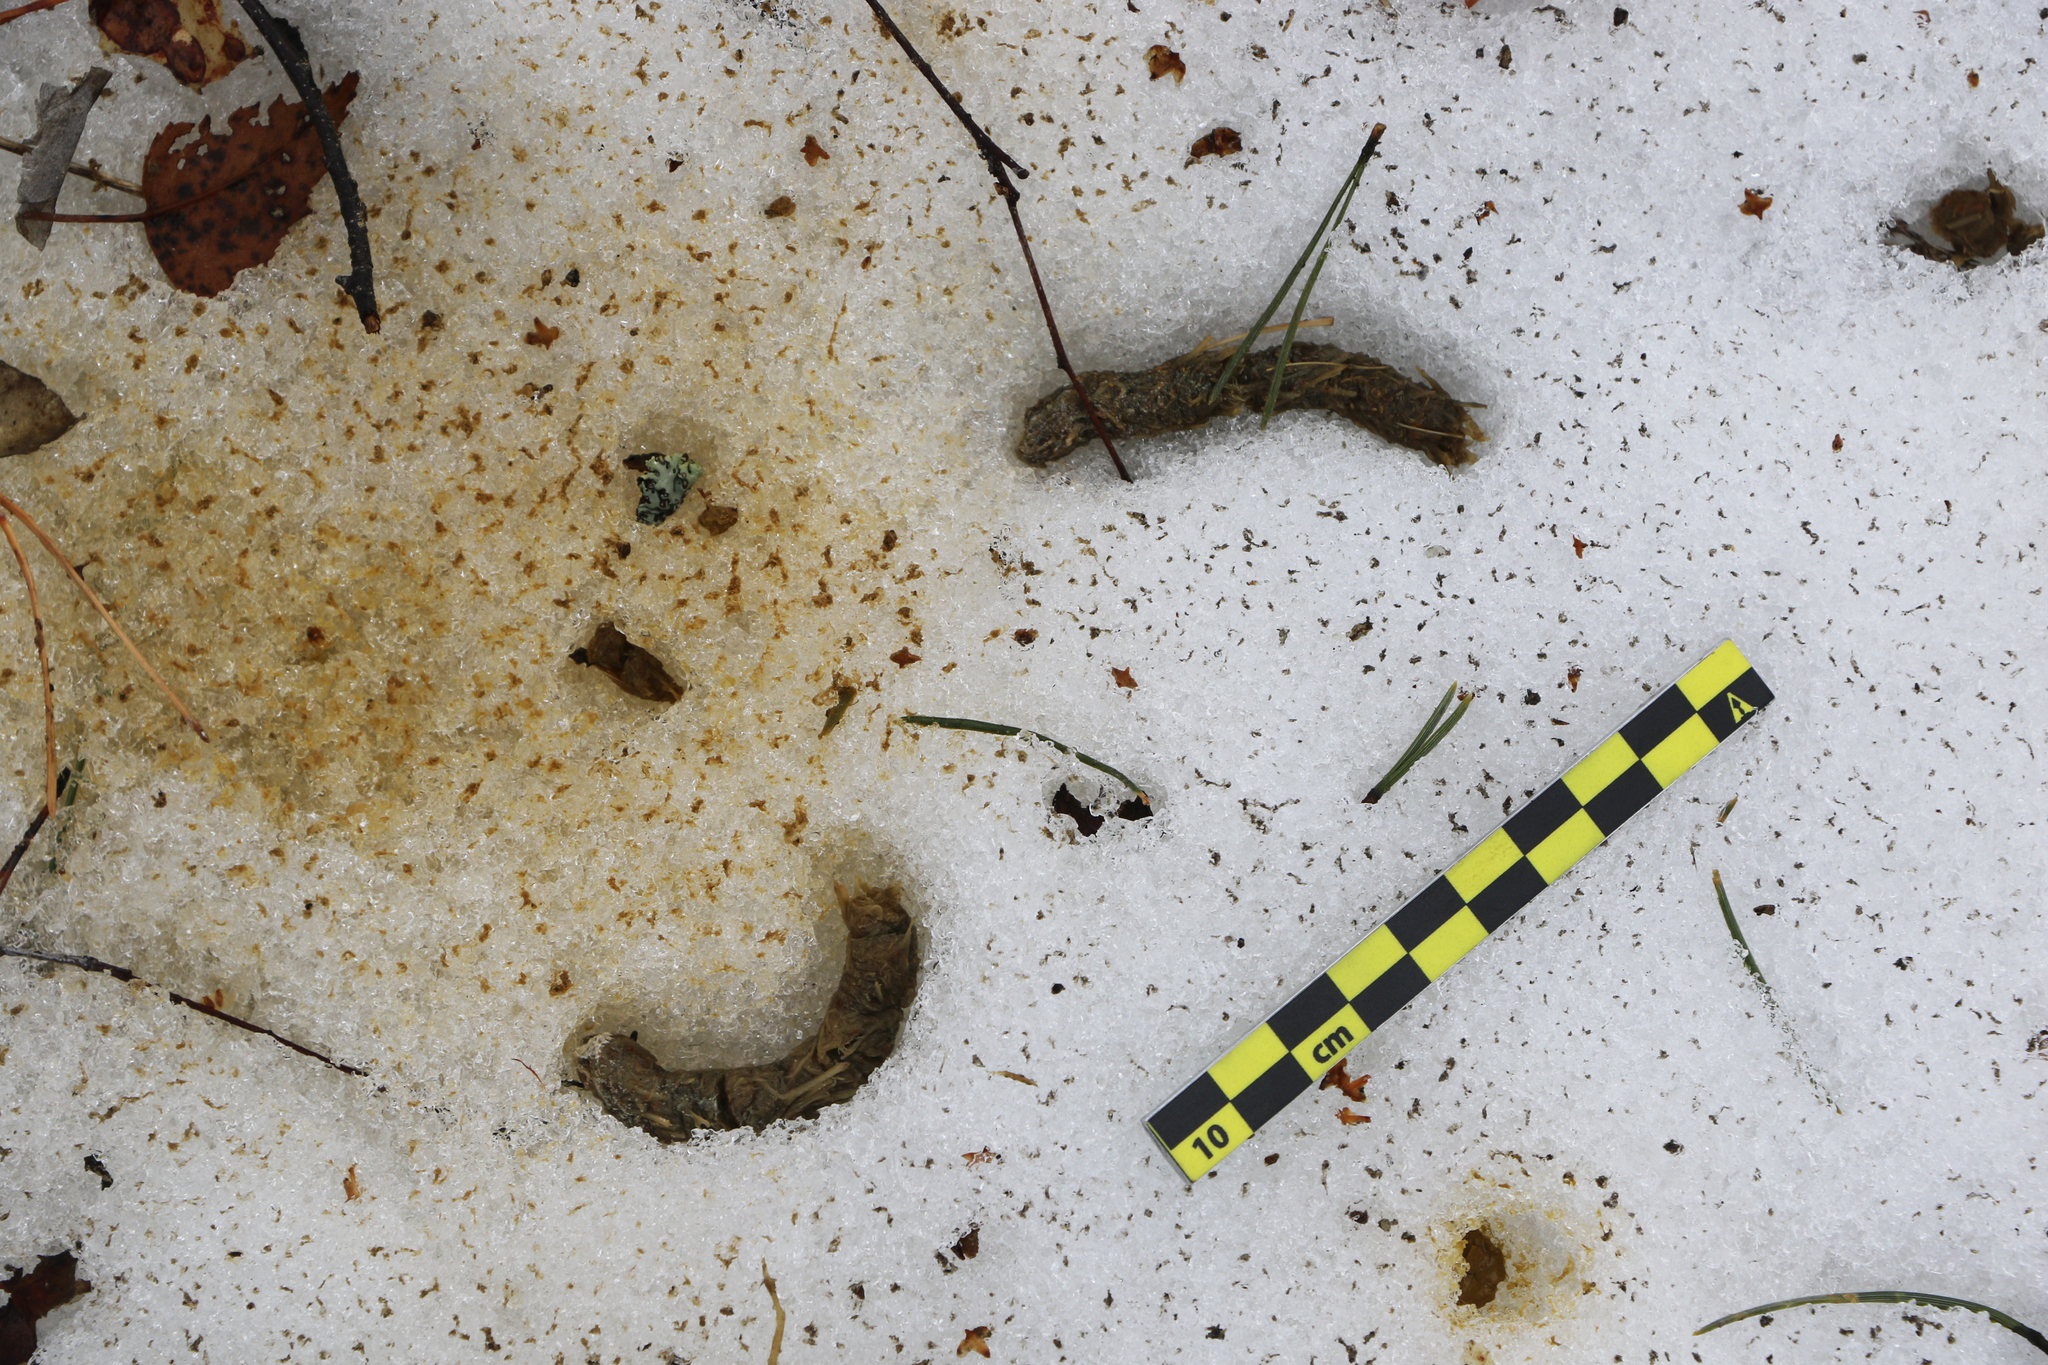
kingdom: Animalia
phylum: Chordata
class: Aves
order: Galliformes
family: Phasianidae
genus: Tetrao
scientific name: Tetrao urogallus
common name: Western capercaillie
